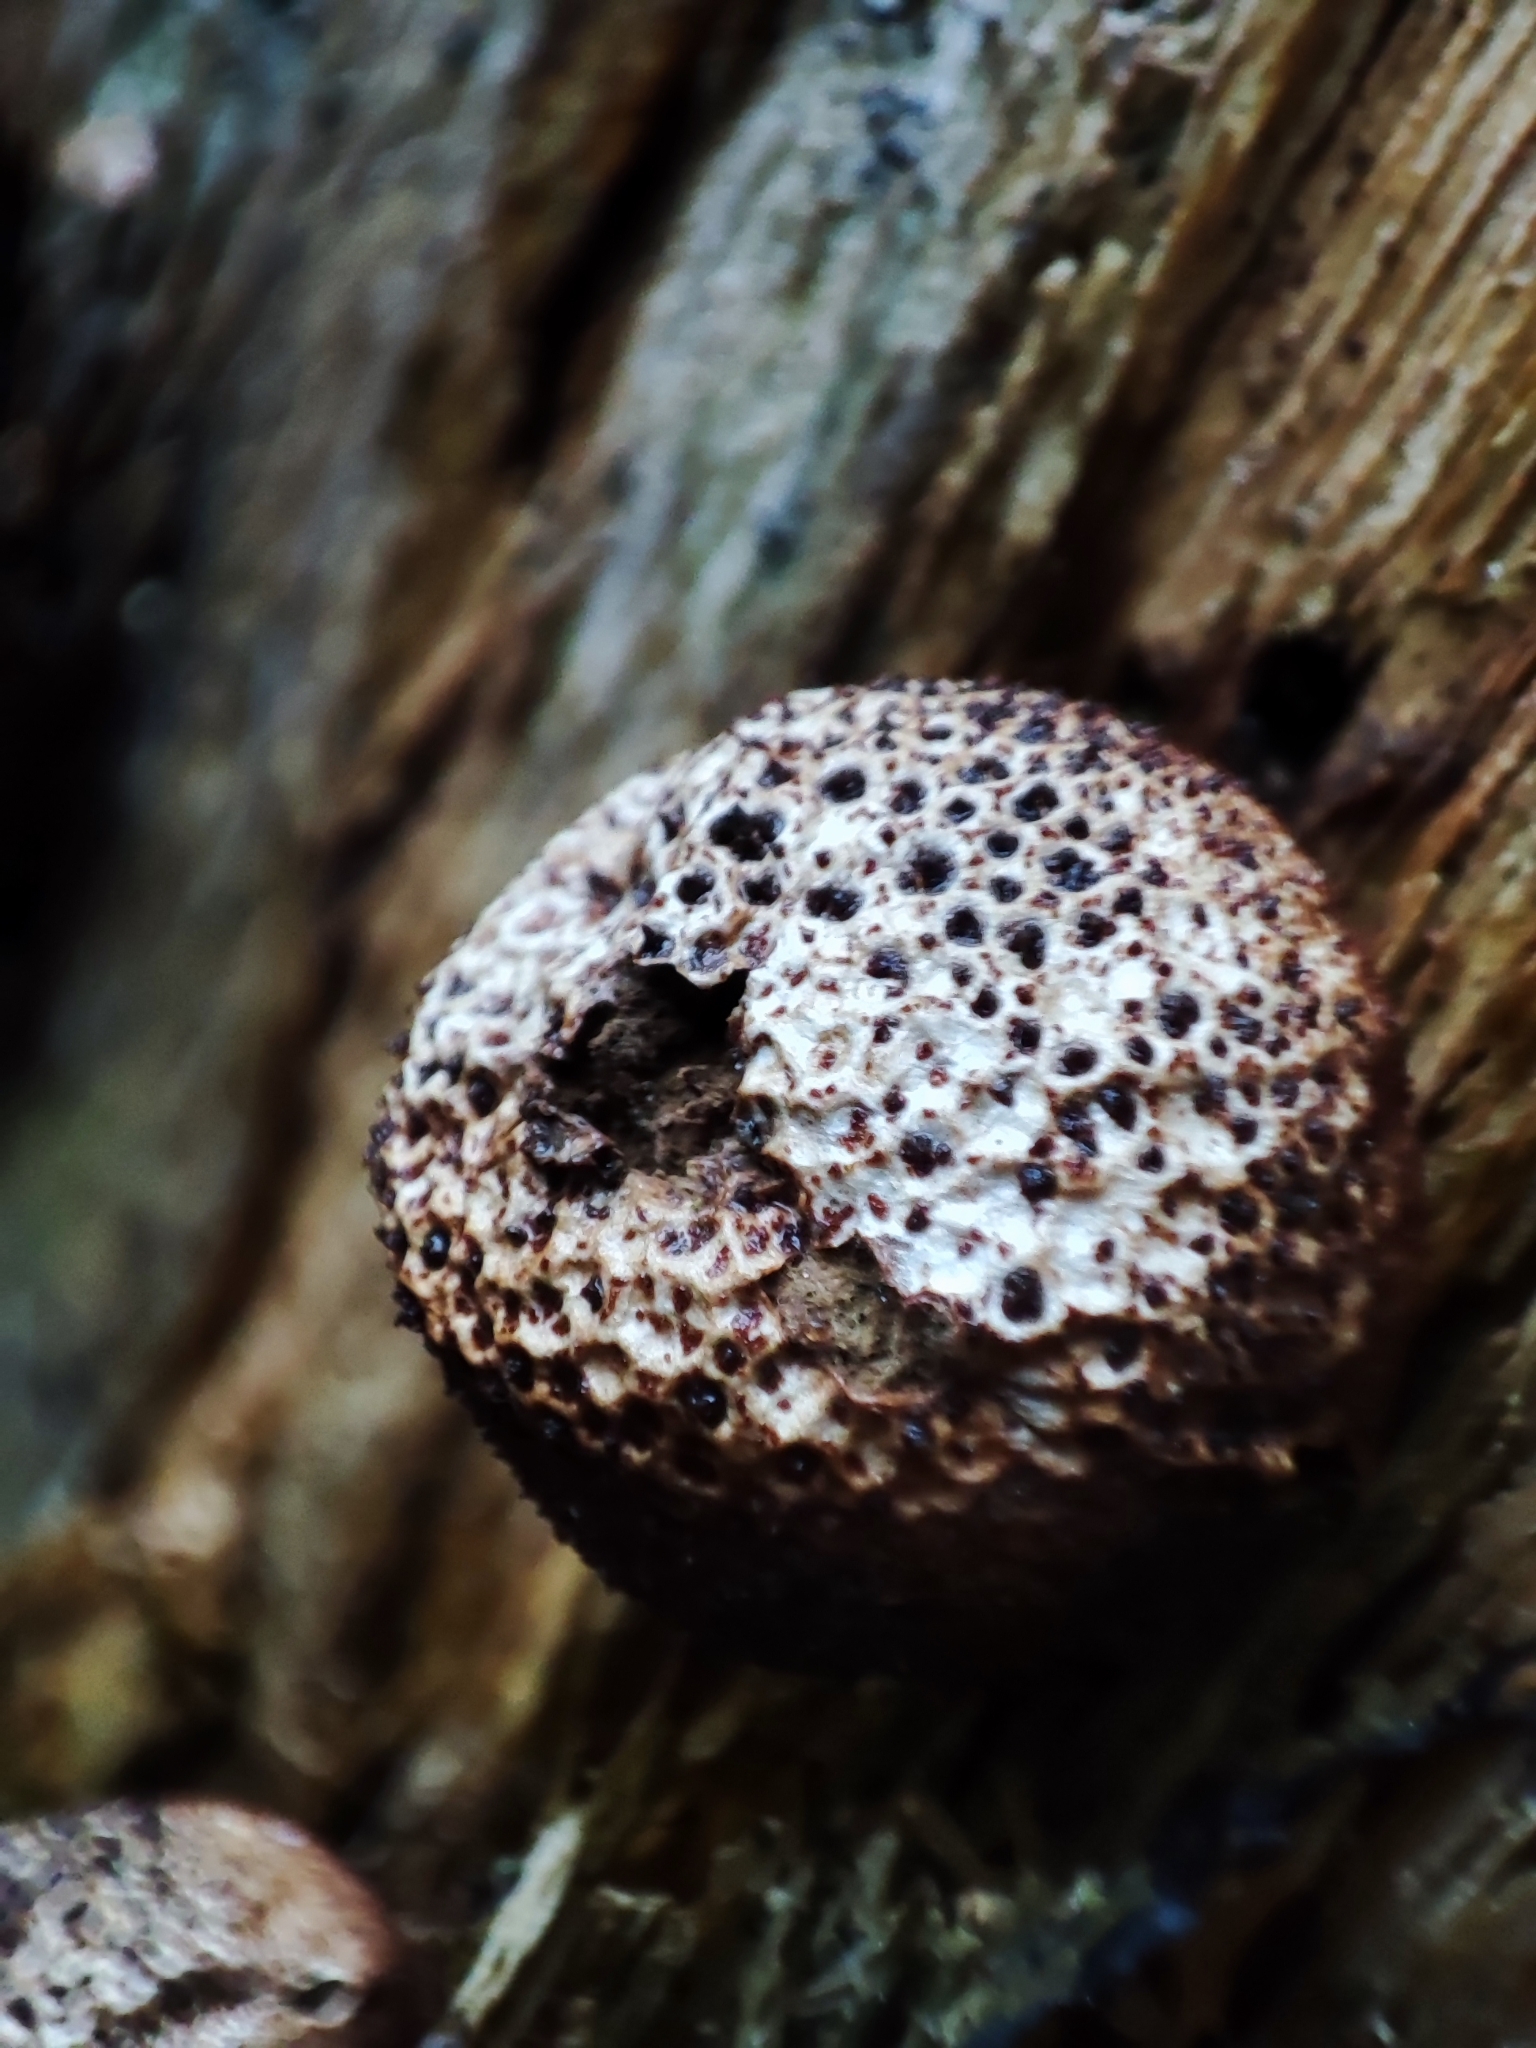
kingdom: Fungi
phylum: Basidiomycota
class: Agaricomycetes
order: Agaricales
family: Lycoperdaceae
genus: Apioperdon
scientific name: Apioperdon pyriforme
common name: Pear-shaped puffball
